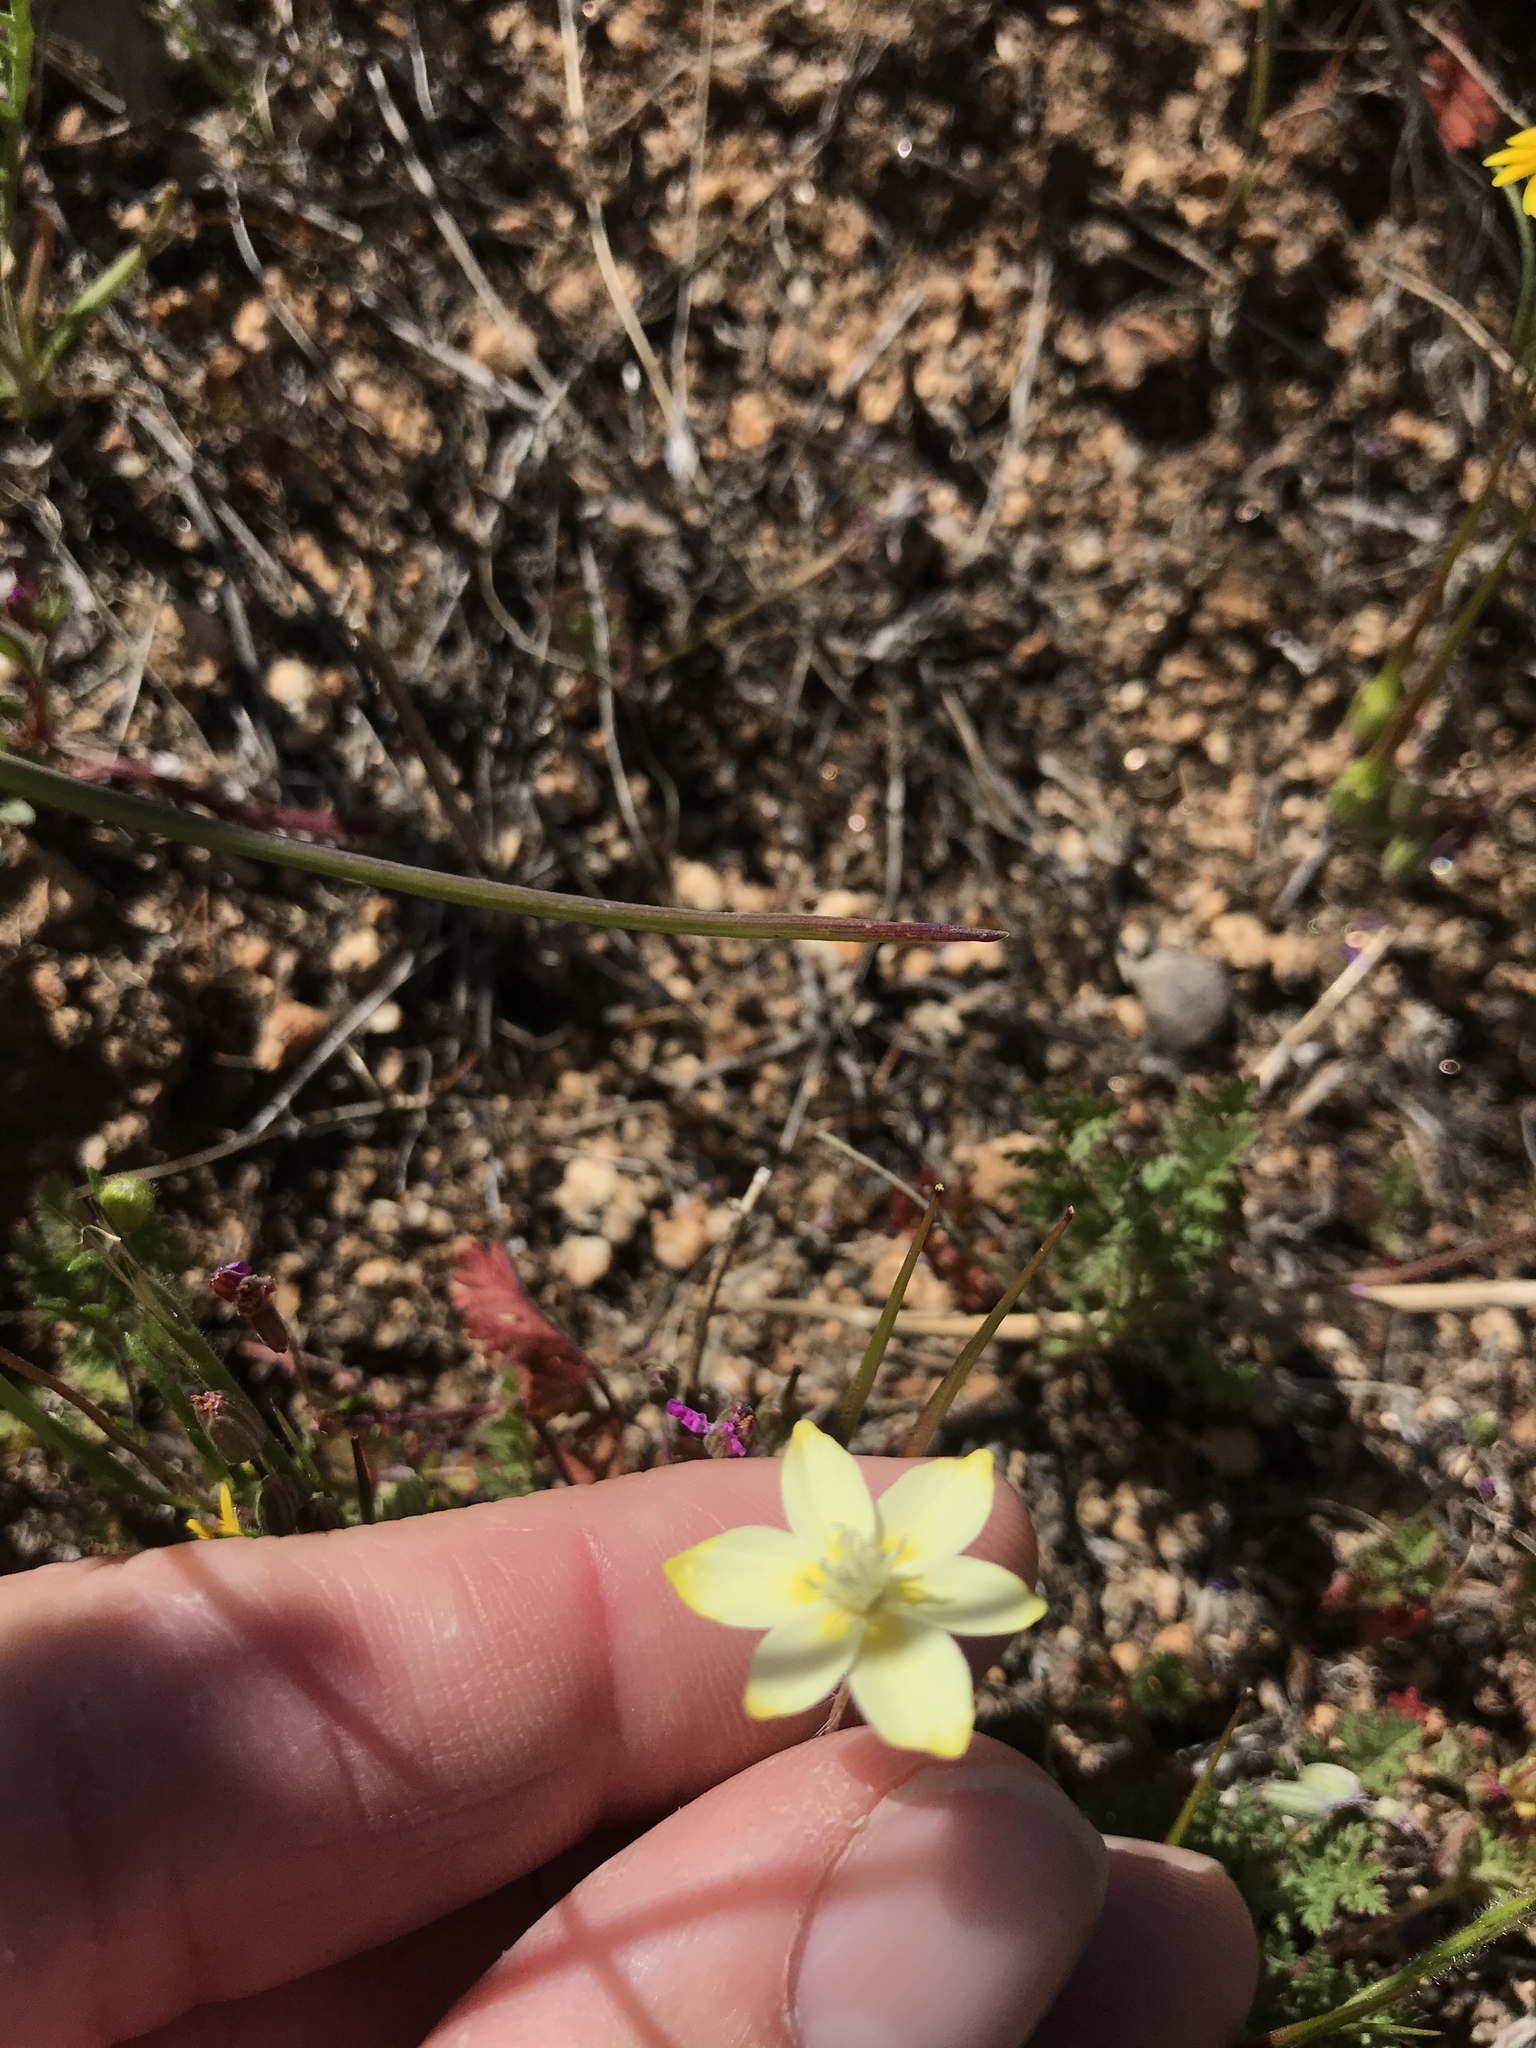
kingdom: Plantae
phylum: Tracheophyta
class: Magnoliopsida
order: Ranunculales
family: Papaveraceae
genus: Platystemon
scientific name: Platystemon californicus
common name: Cream-cups
